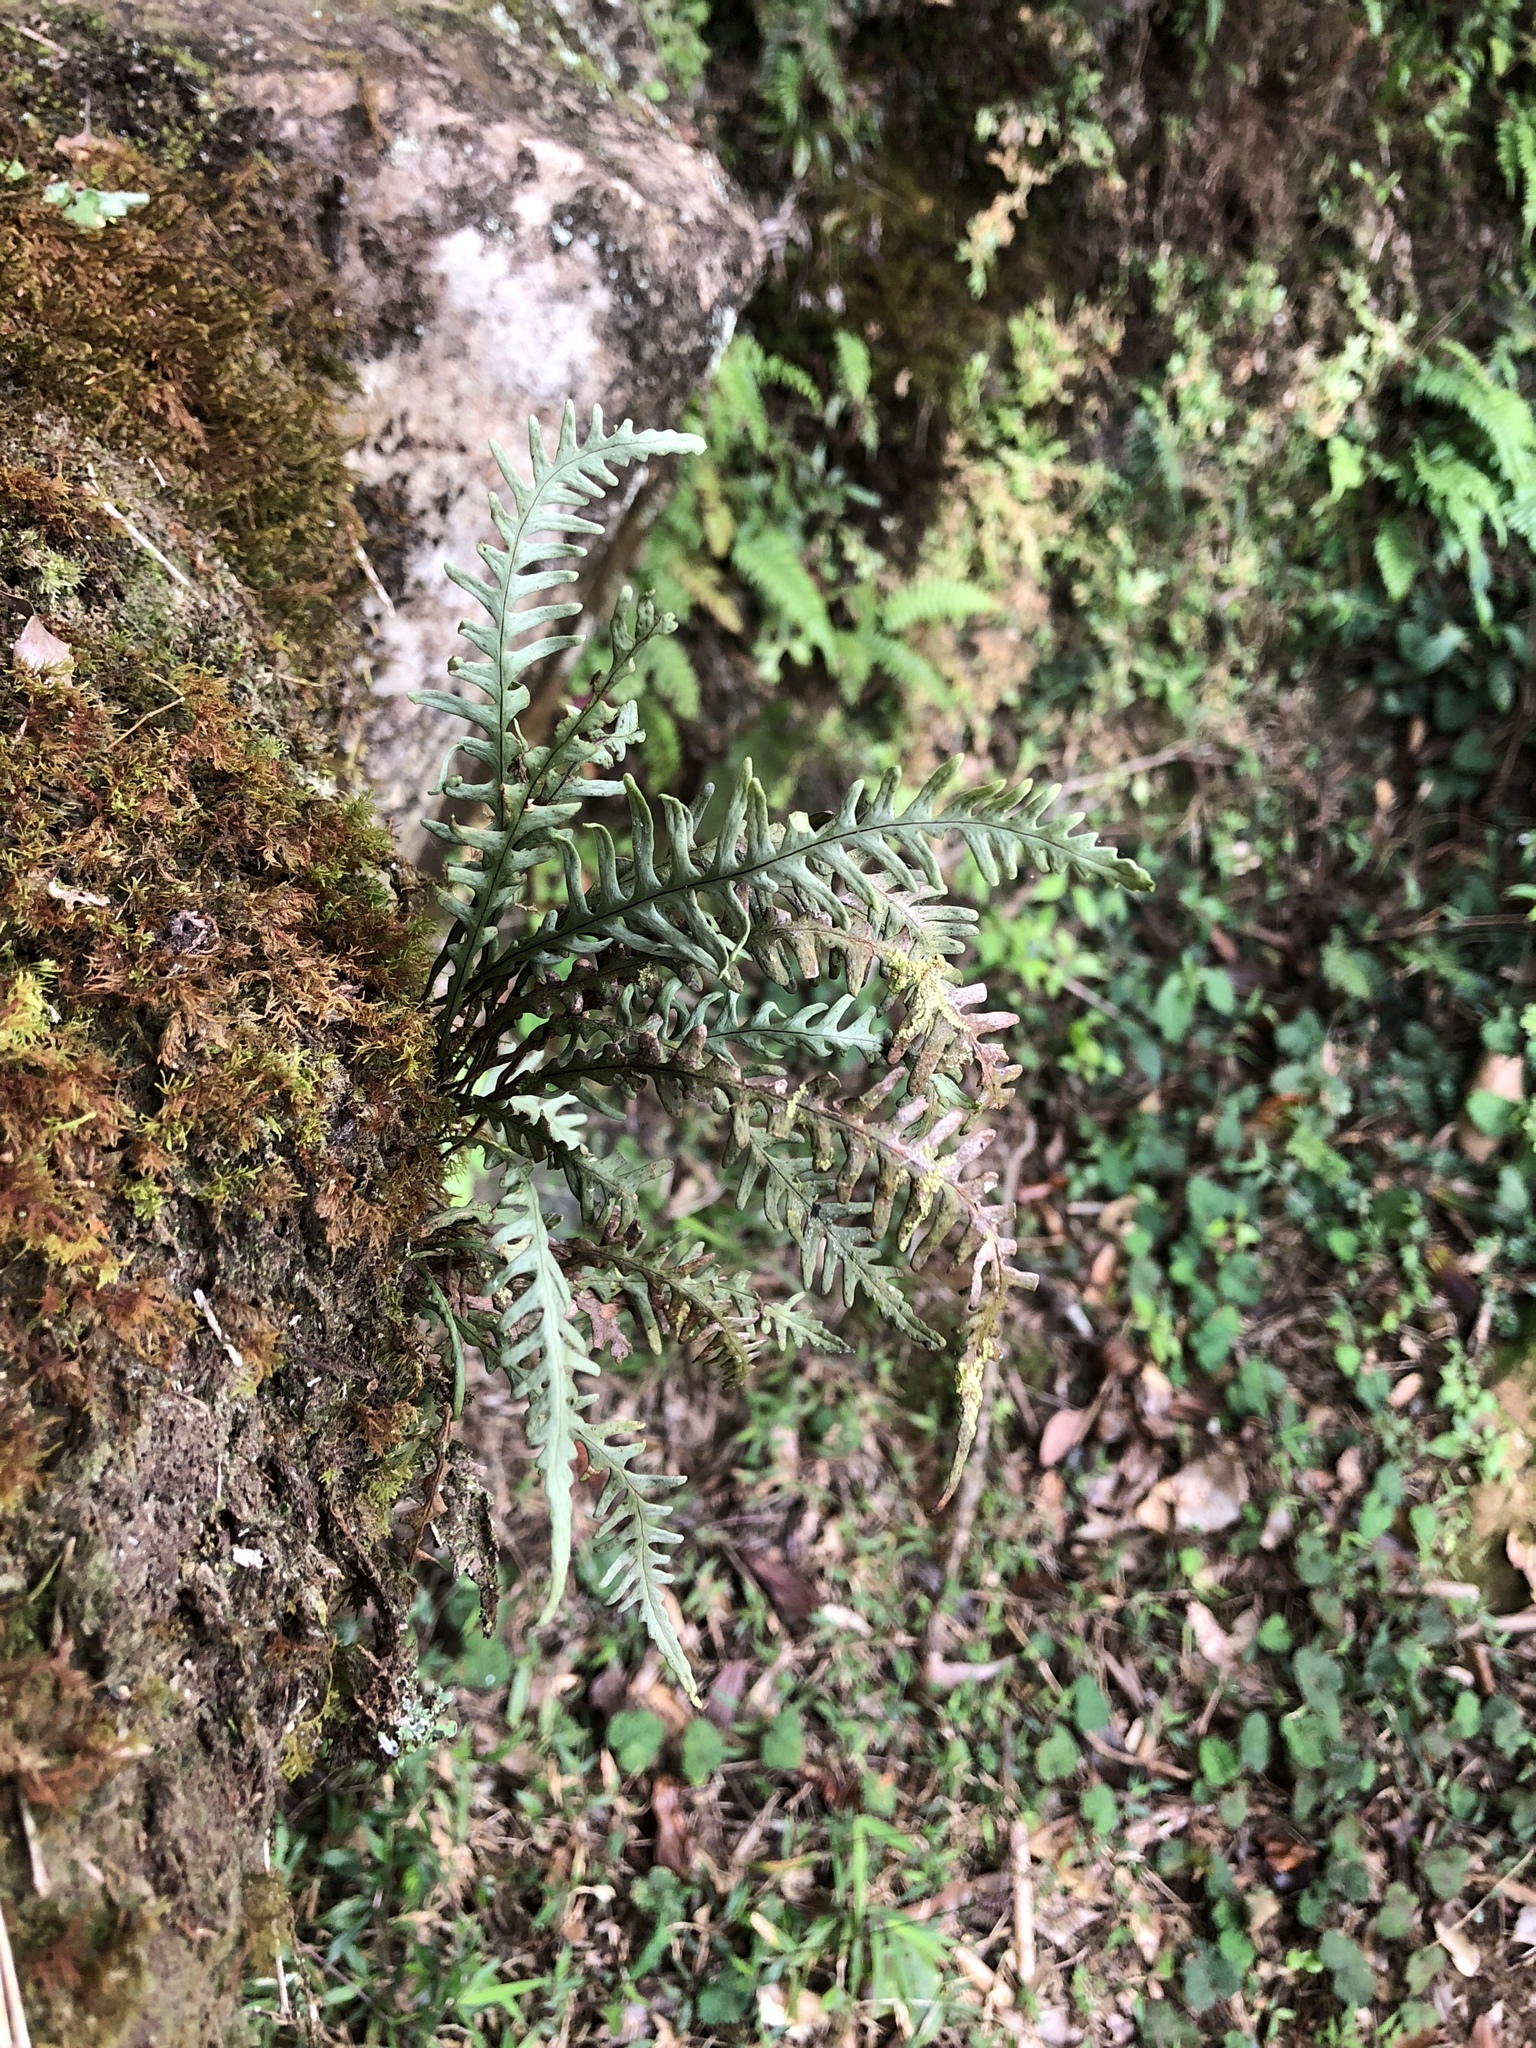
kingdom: Plantae
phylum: Tracheophyta
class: Polypodiopsida
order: Polypodiales
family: Polypodiaceae
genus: Oreogrammitis
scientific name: Oreogrammitis curtisii
